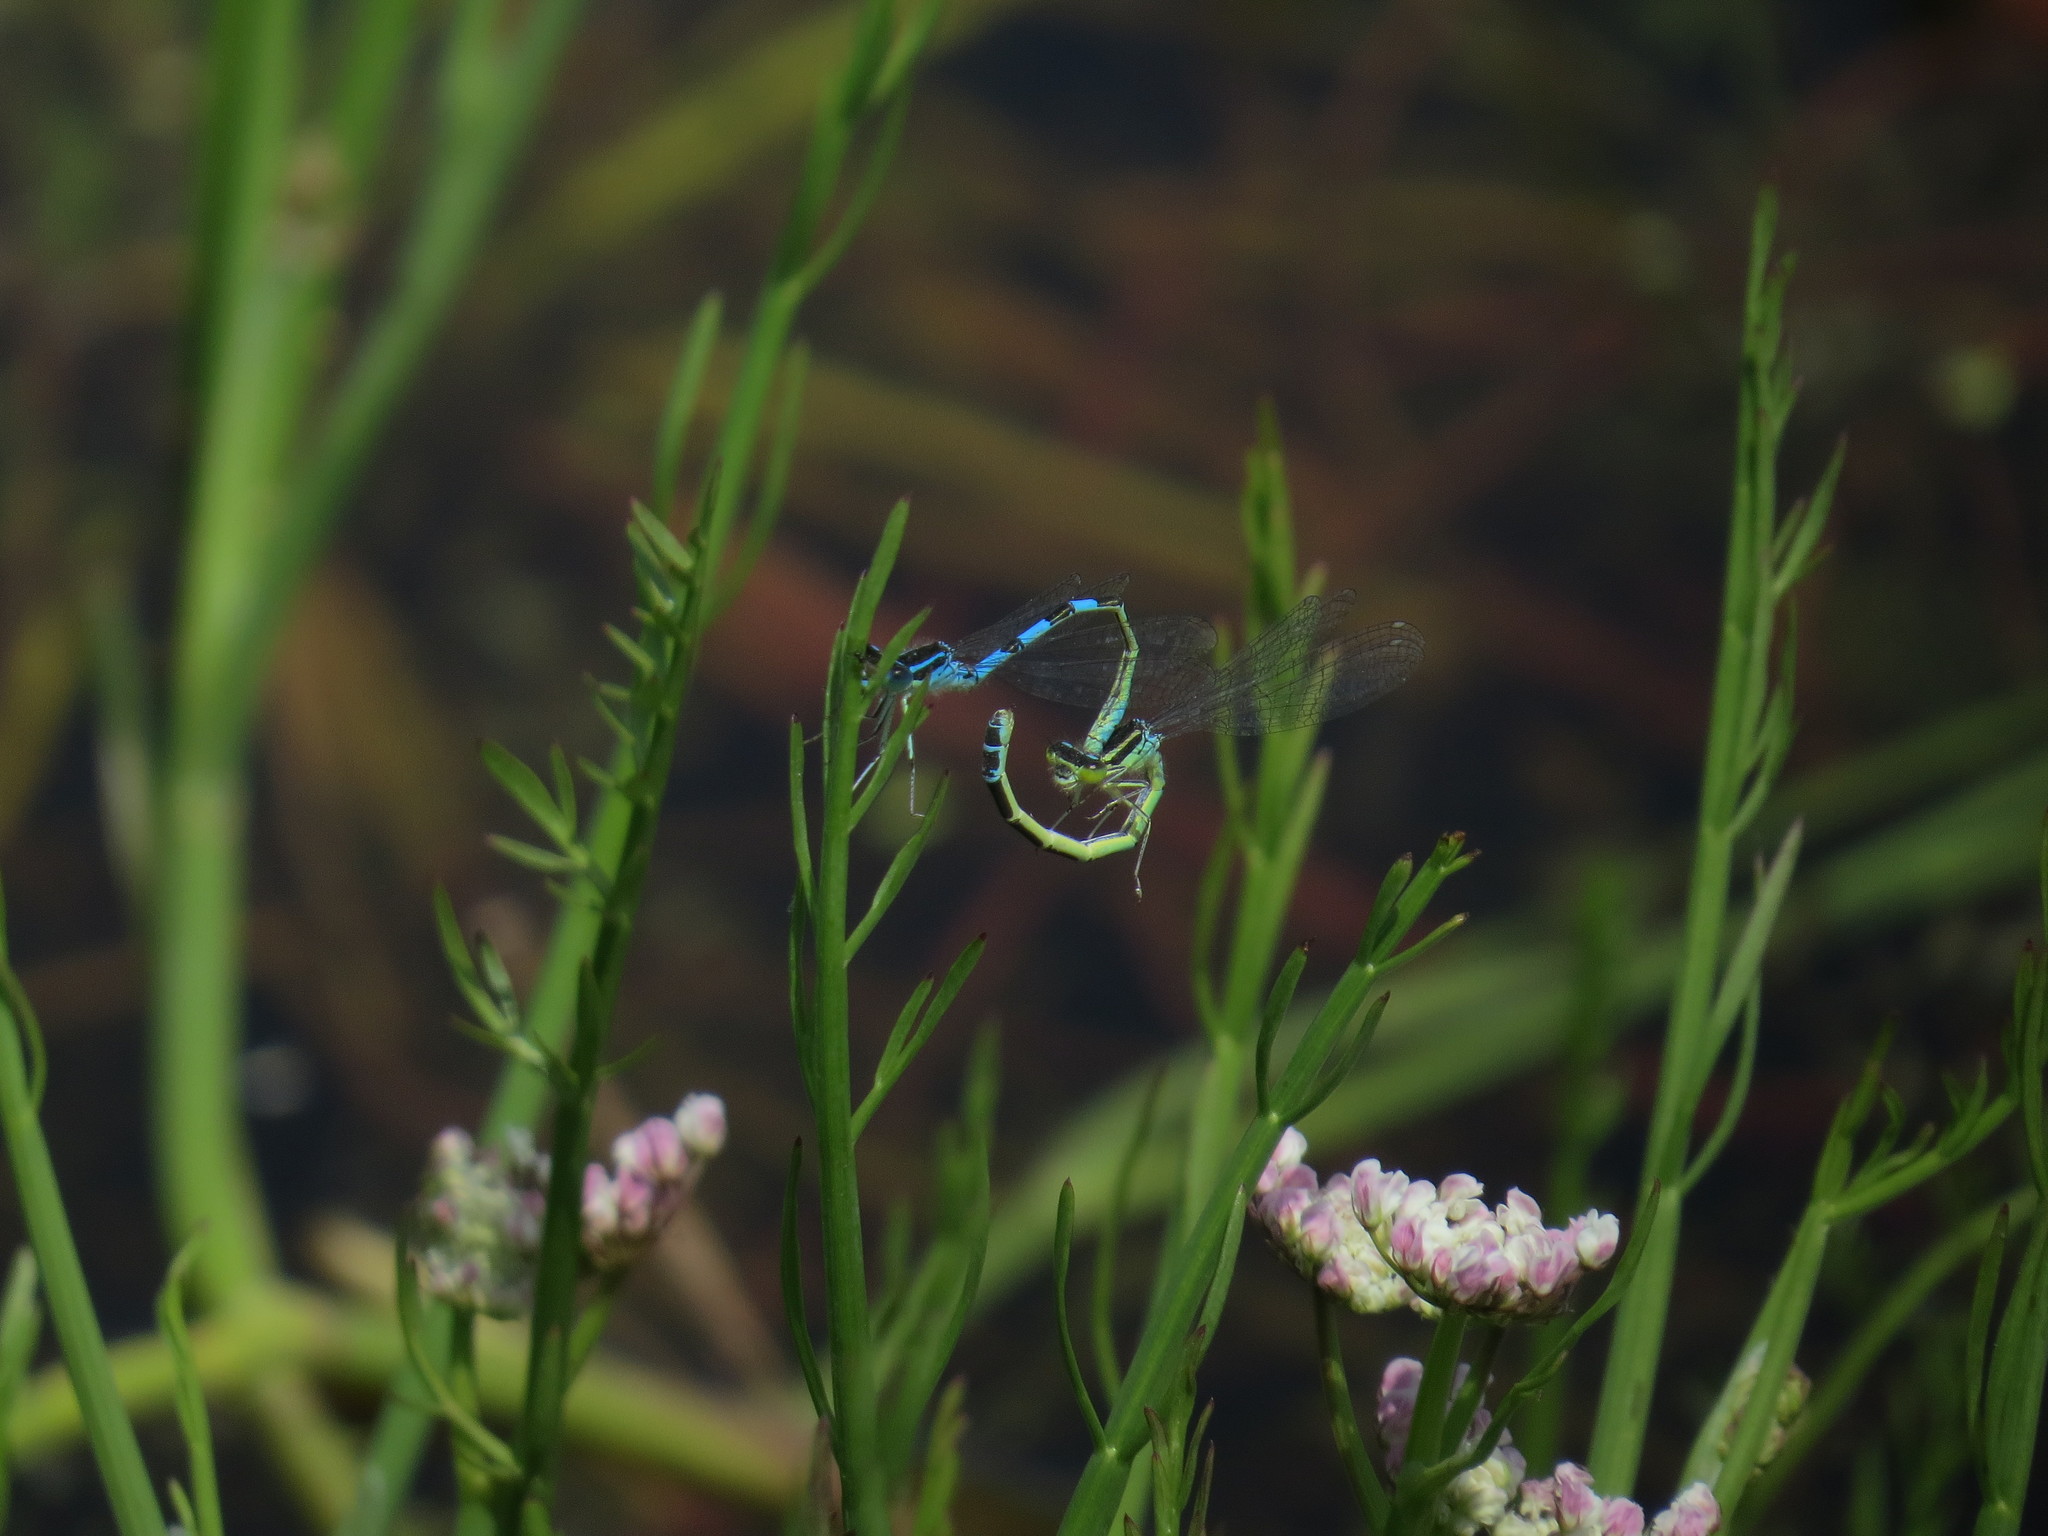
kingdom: Animalia
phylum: Arthropoda
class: Insecta
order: Odonata
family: Coenagrionidae
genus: Coenagrion
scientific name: Coenagrion scitulum
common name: Dainty bluet
